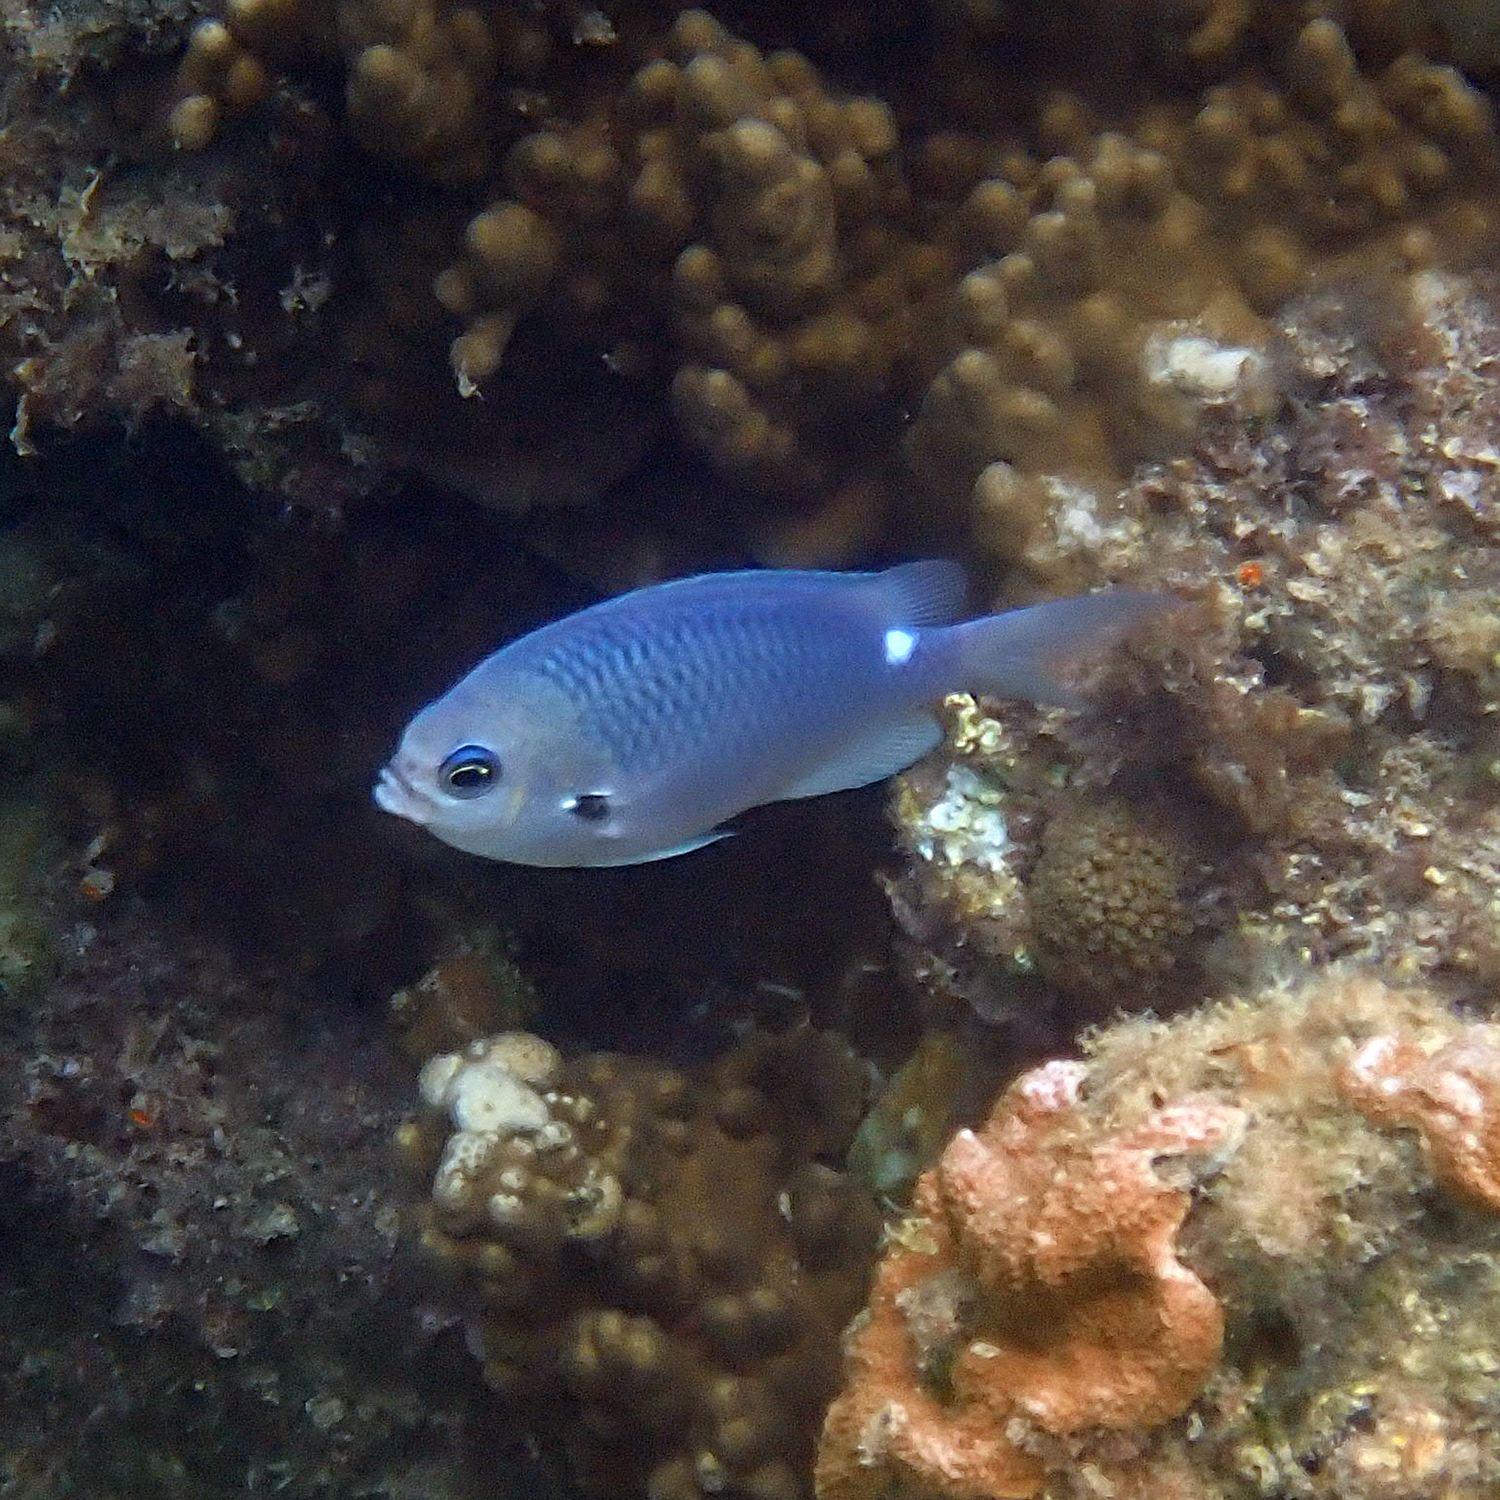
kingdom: Animalia
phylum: Chordata
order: Perciformes
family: Pomacentridae
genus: Chromis
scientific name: Chromis hypsilepis
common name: Brown puller
